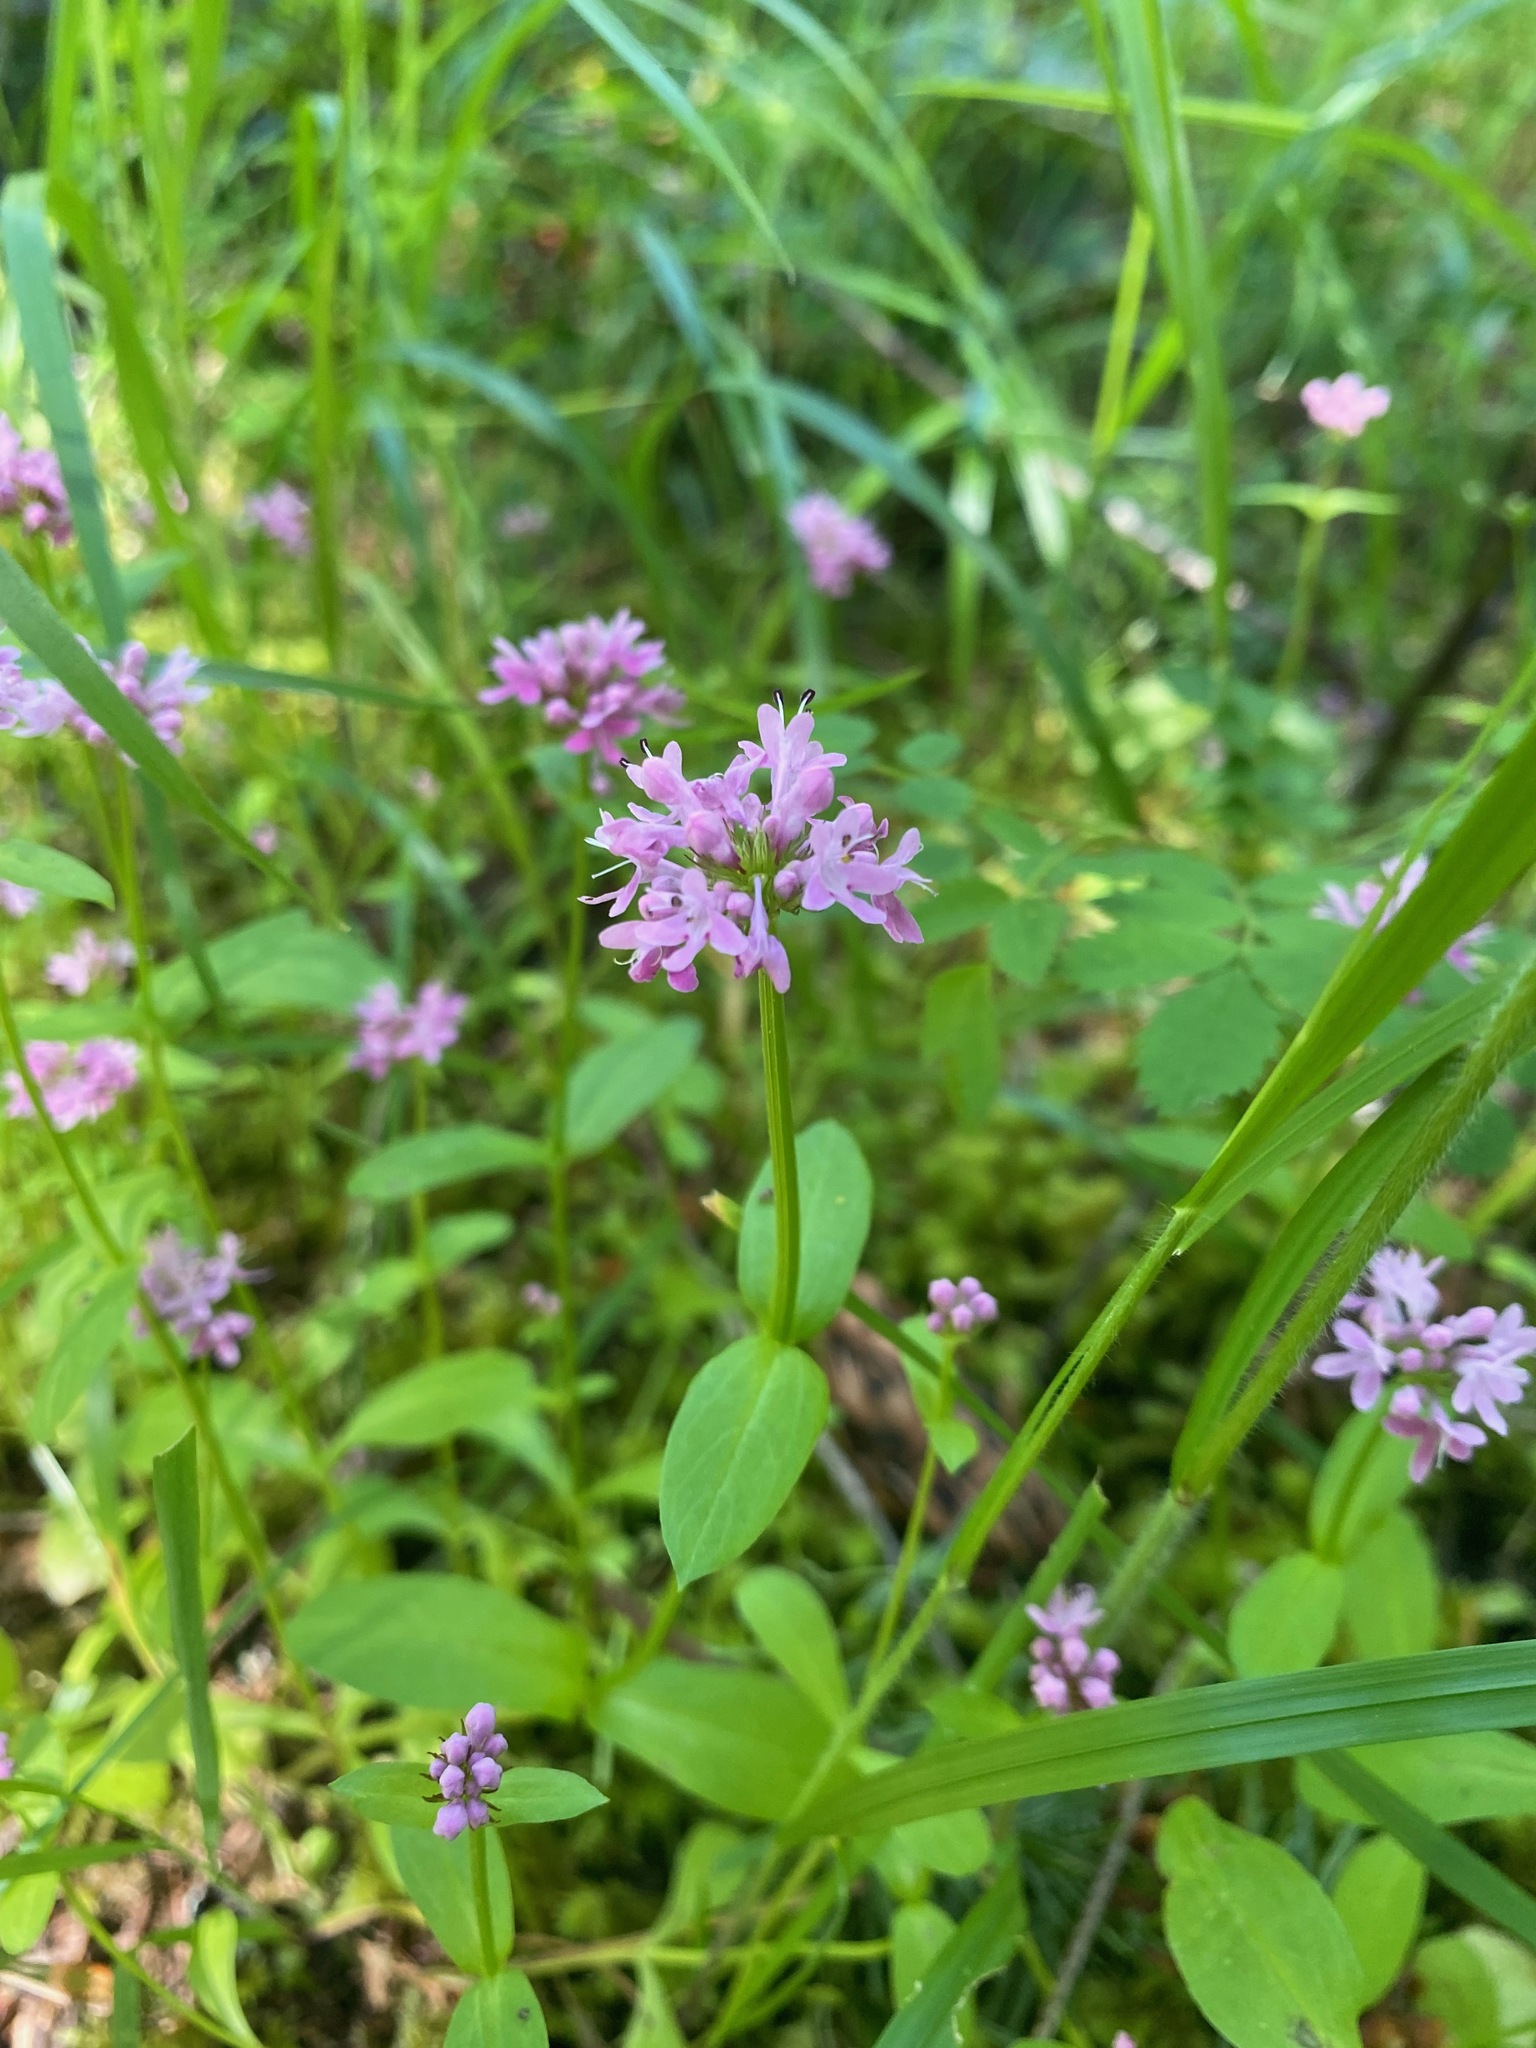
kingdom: Plantae
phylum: Tracheophyta
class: Magnoliopsida
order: Dipsacales
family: Caprifoliaceae
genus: Plectritis
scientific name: Plectritis congesta
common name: Pink plectritis
